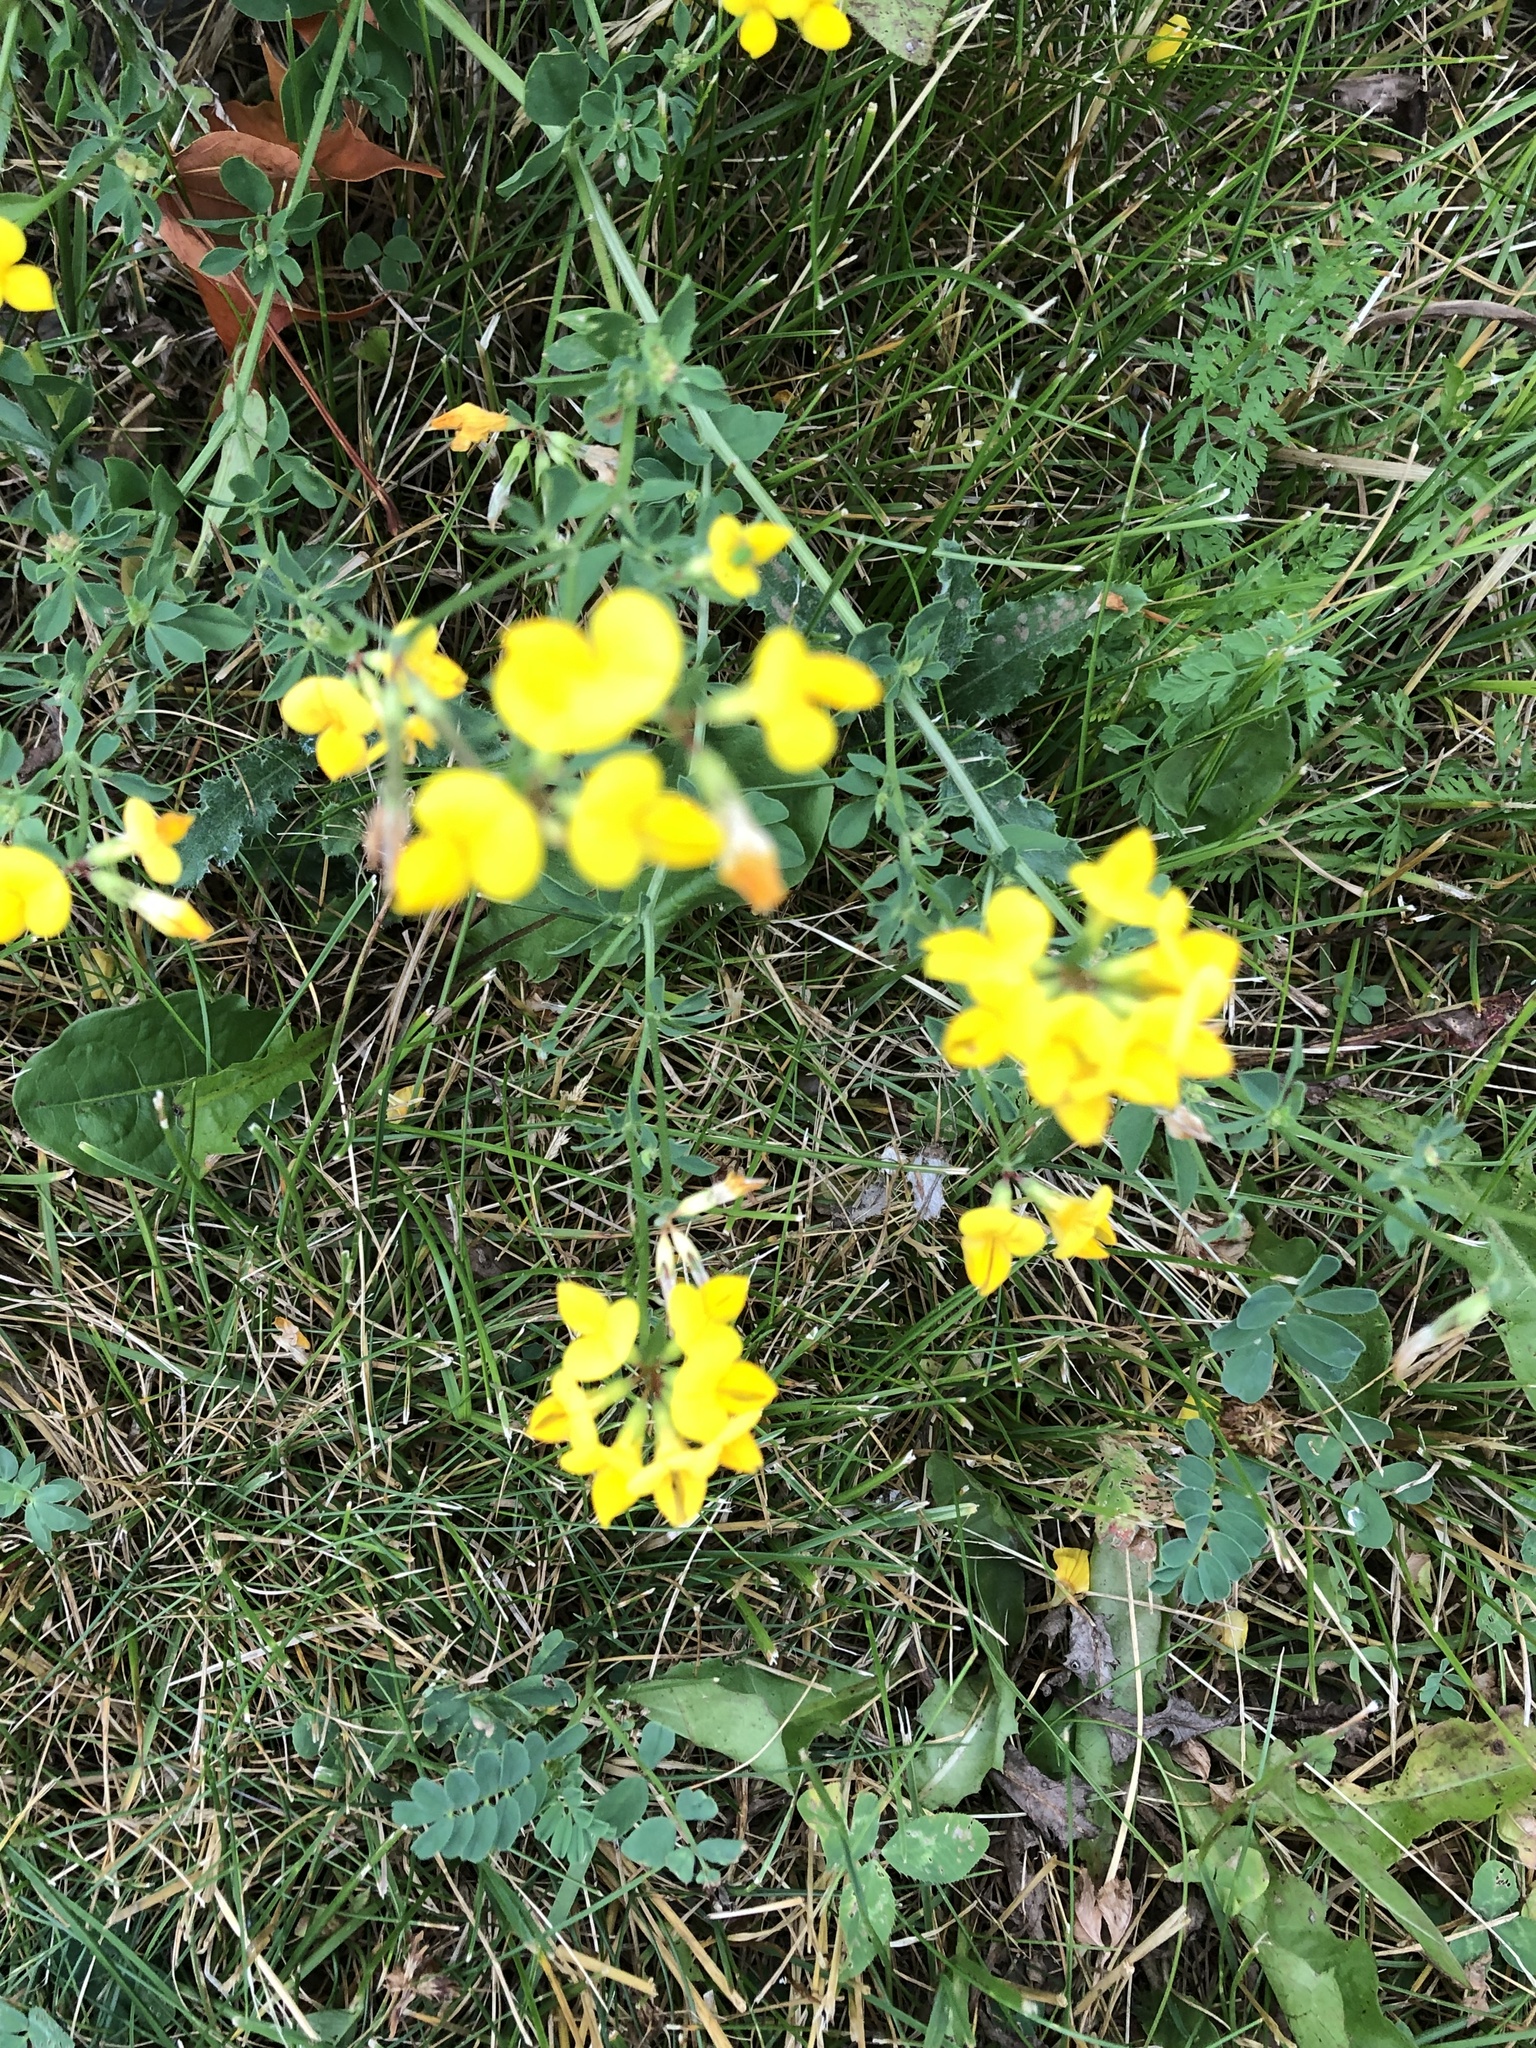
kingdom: Plantae
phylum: Tracheophyta
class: Magnoliopsida
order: Fabales
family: Fabaceae
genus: Lotus
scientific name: Lotus corniculatus
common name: Common bird's-foot-trefoil
